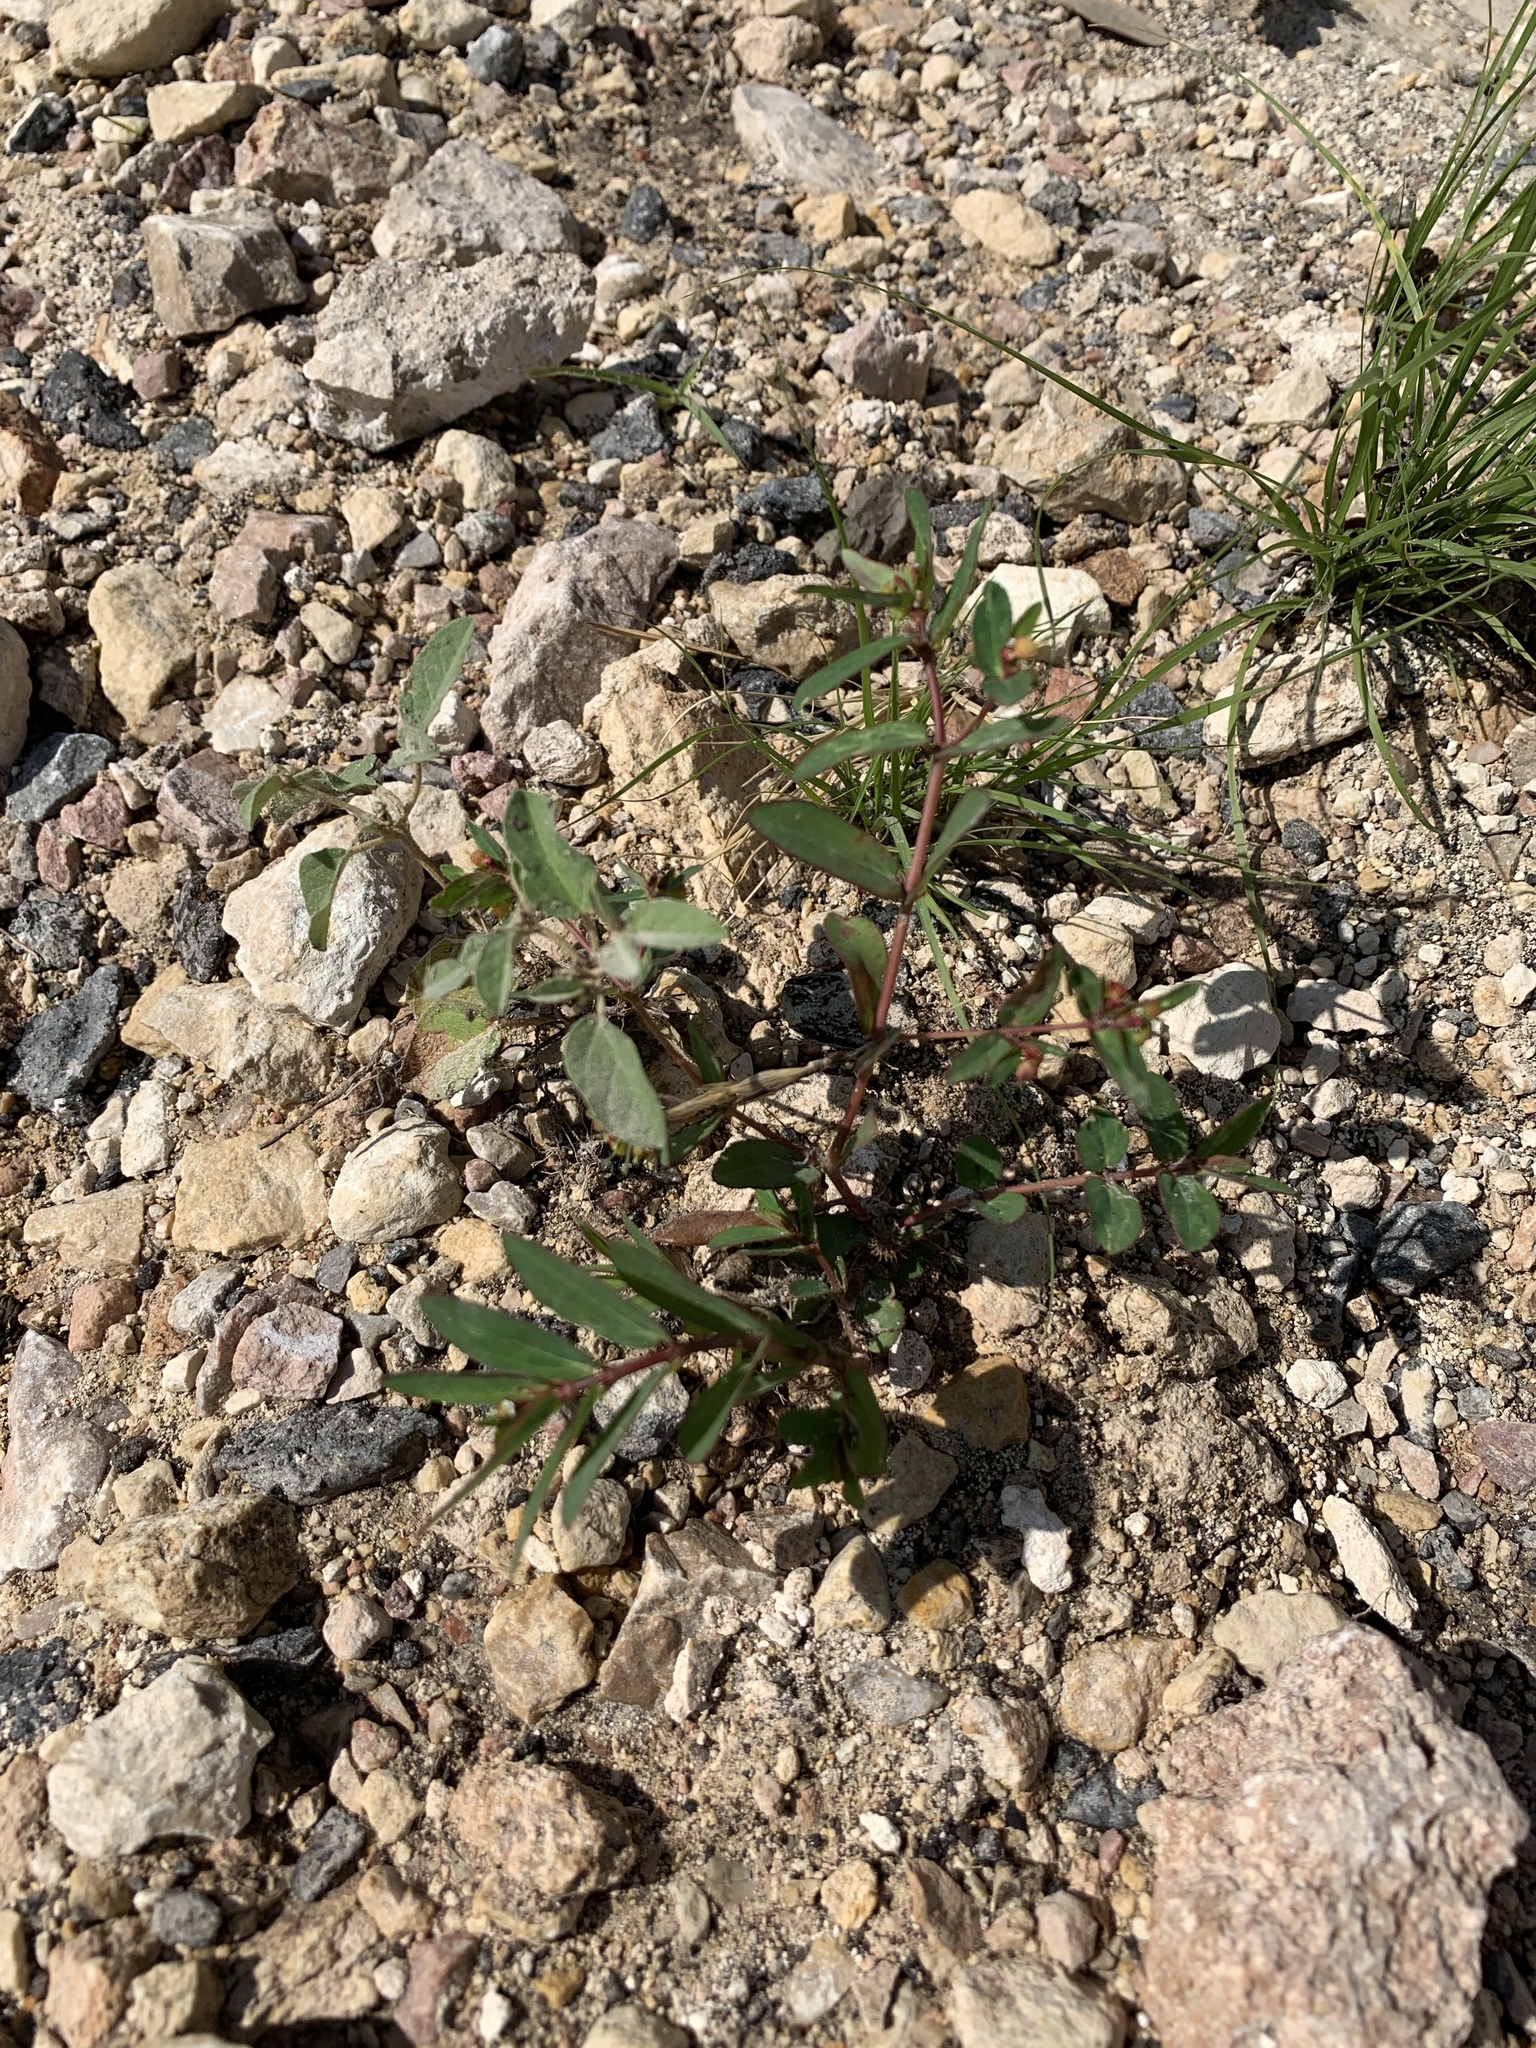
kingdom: Plantae
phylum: Tracheophyta
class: Magnoliopsida
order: Malpighiales
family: Euphorbiaceae
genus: Euphorbia
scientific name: Euphorbia nutans
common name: Eyebane
